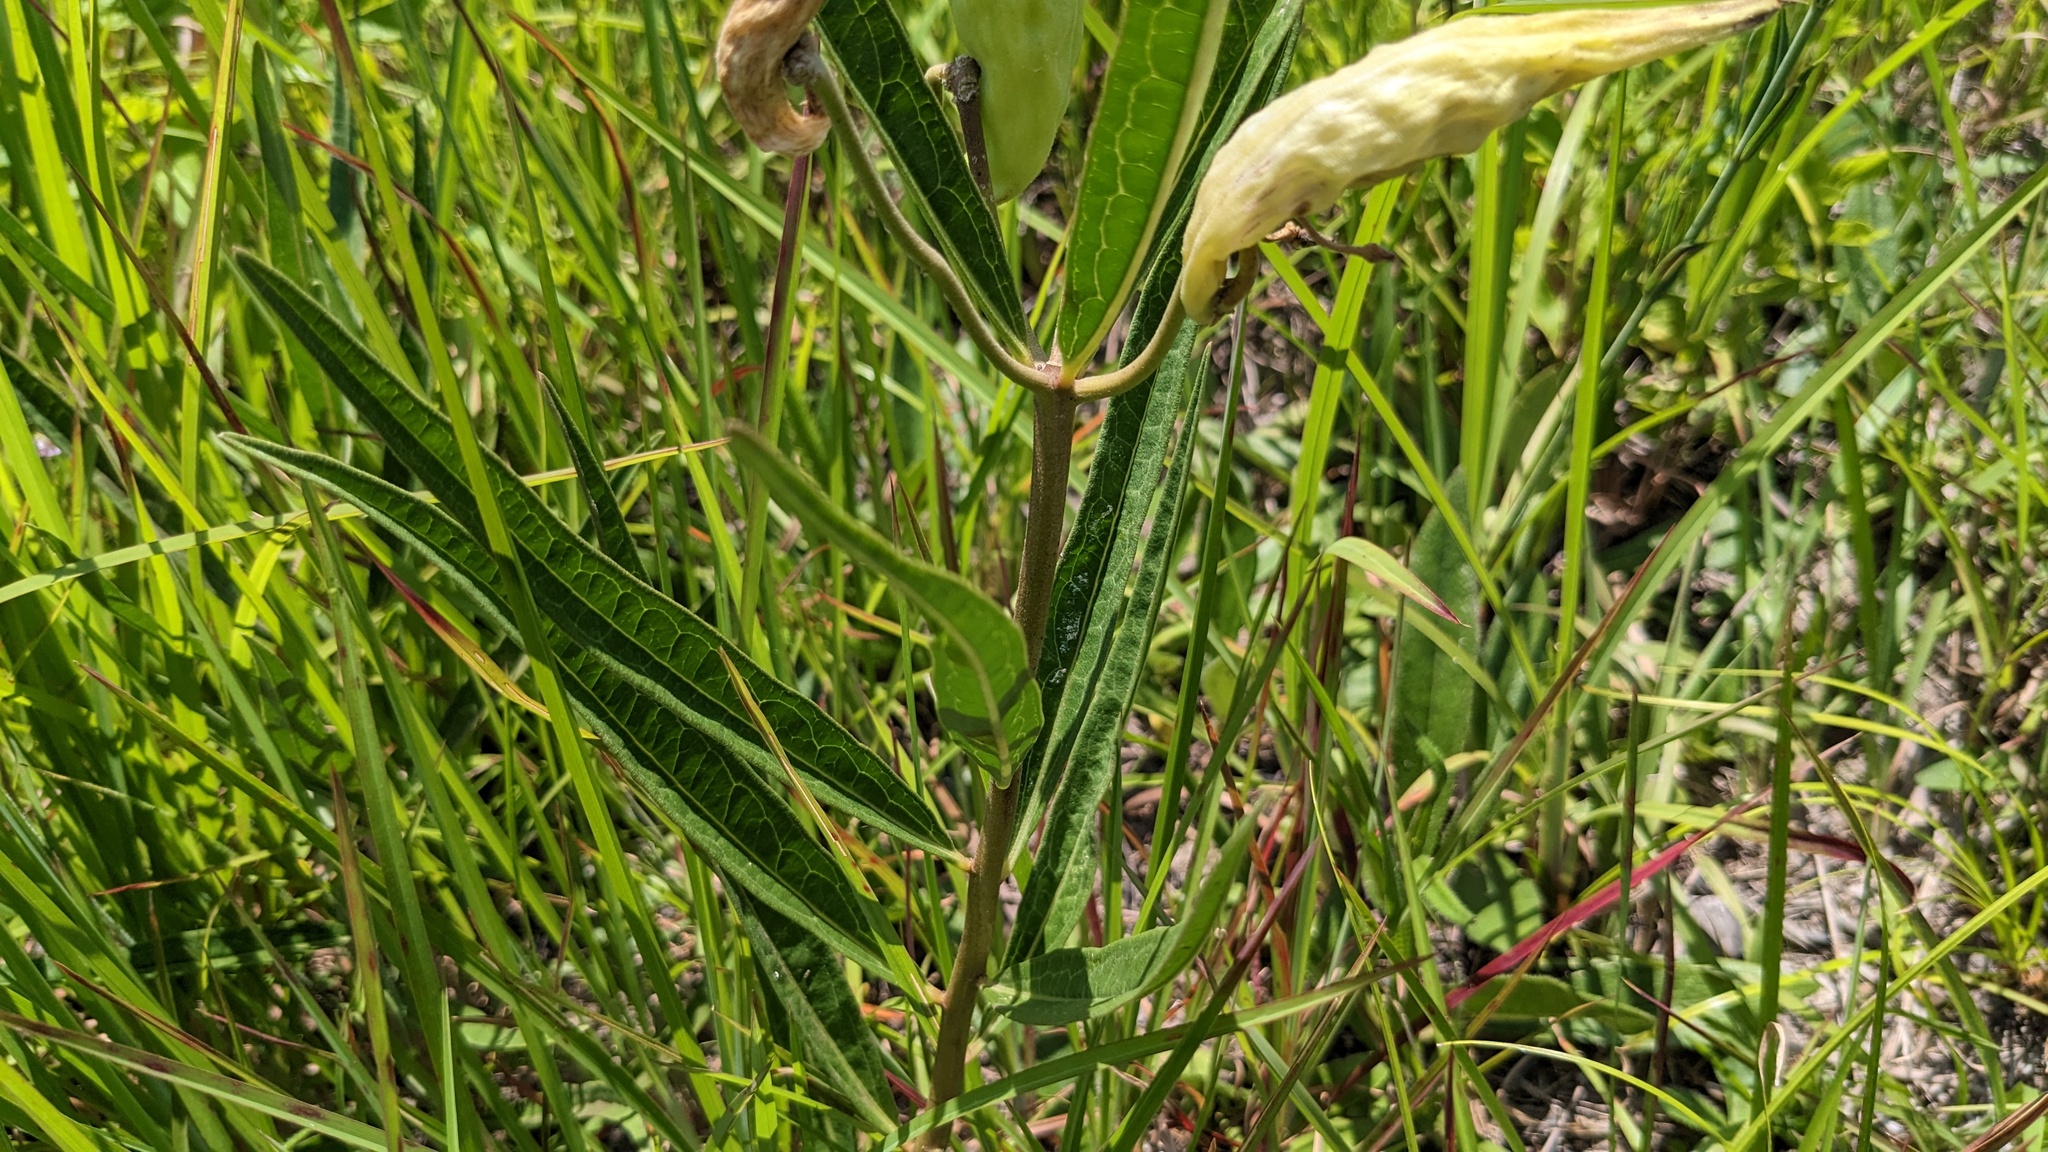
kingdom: Plantae
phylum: Tracheophyta
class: Magnoliopsida
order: Gentianales
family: Apocynaceae
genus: Asclepias
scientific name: Asclepias longifolia
